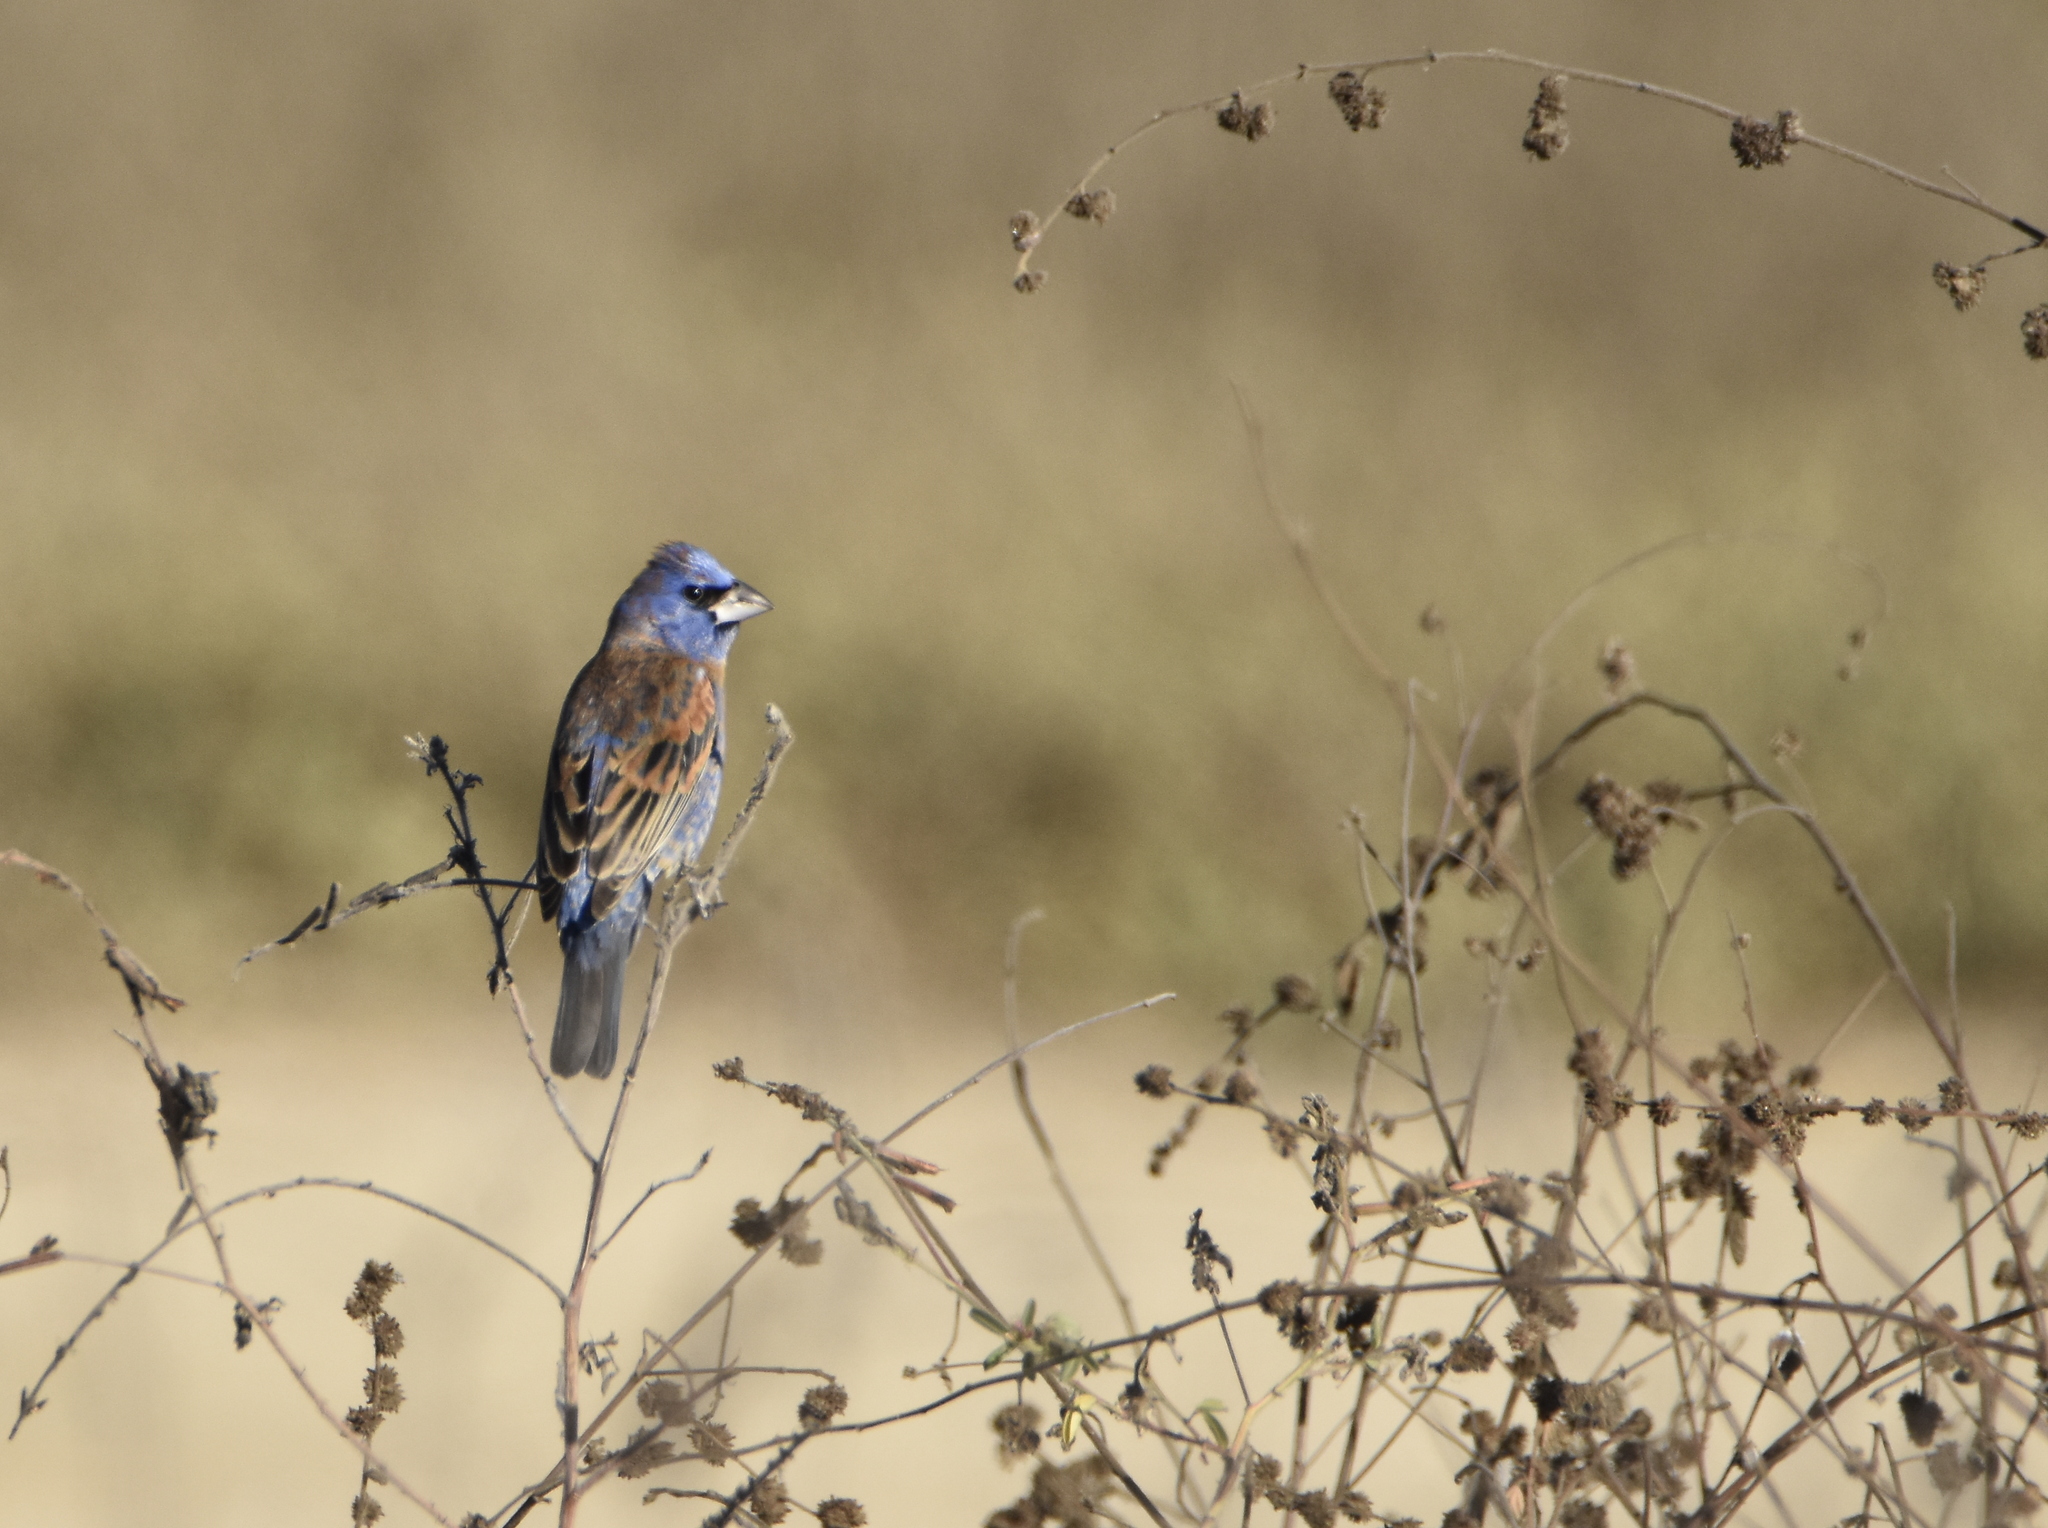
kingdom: Animalia
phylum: Chordata
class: Aves
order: Passeriformes
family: Cardinalidae
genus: Passerina
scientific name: Passerina caerulea
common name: Blue grosbeak
